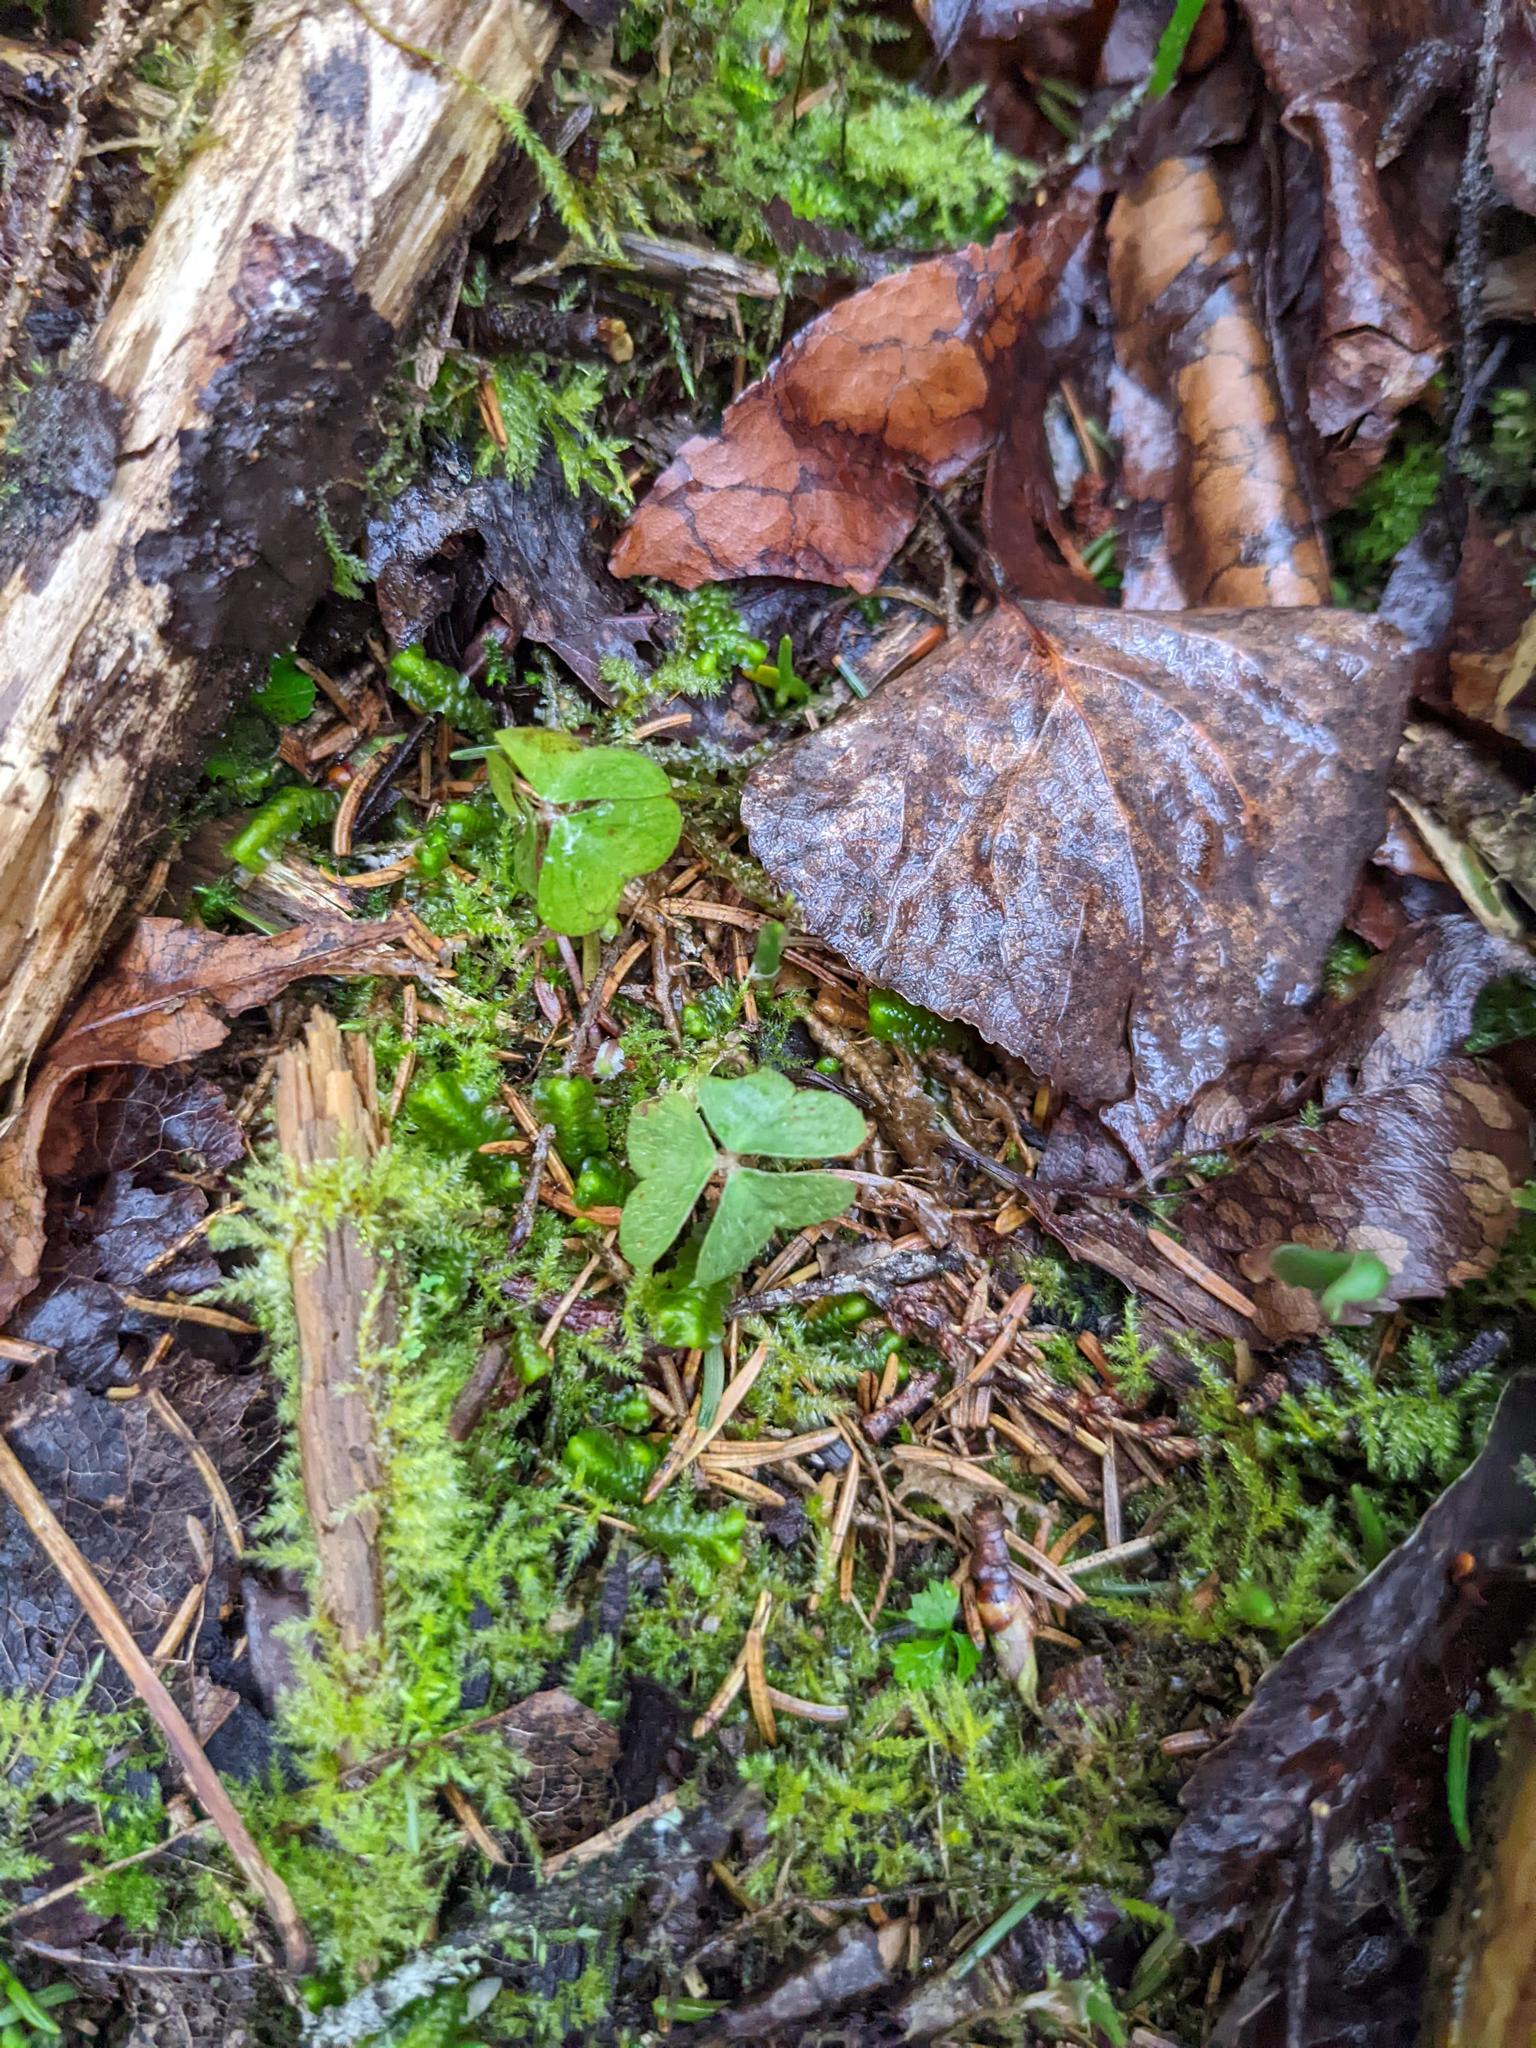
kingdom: Plantae
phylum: Tracheophyta
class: Magnoliopsida
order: Oxalidales
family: Oxalidaceae
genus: Oxalis
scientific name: Oxalis montana
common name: American wood-sorrel
